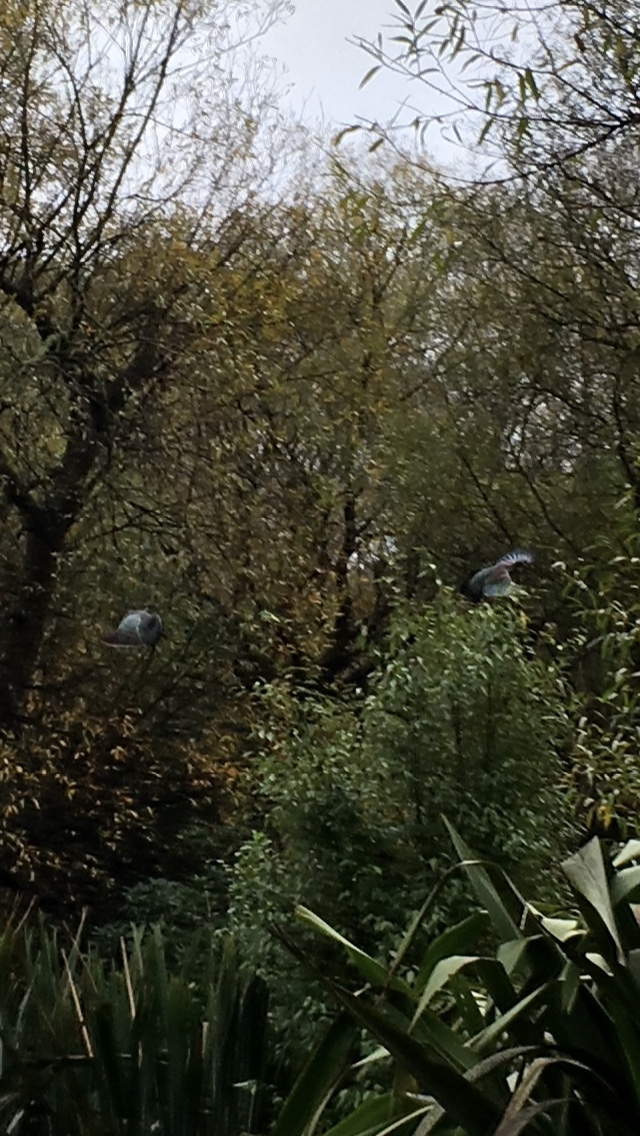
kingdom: Animalia
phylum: Chordata
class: Aves
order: Columbiformes
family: Columbidae
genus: Hemiphaga
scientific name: Hemiphaga novaeseelandiae
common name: New zealand pigeon
